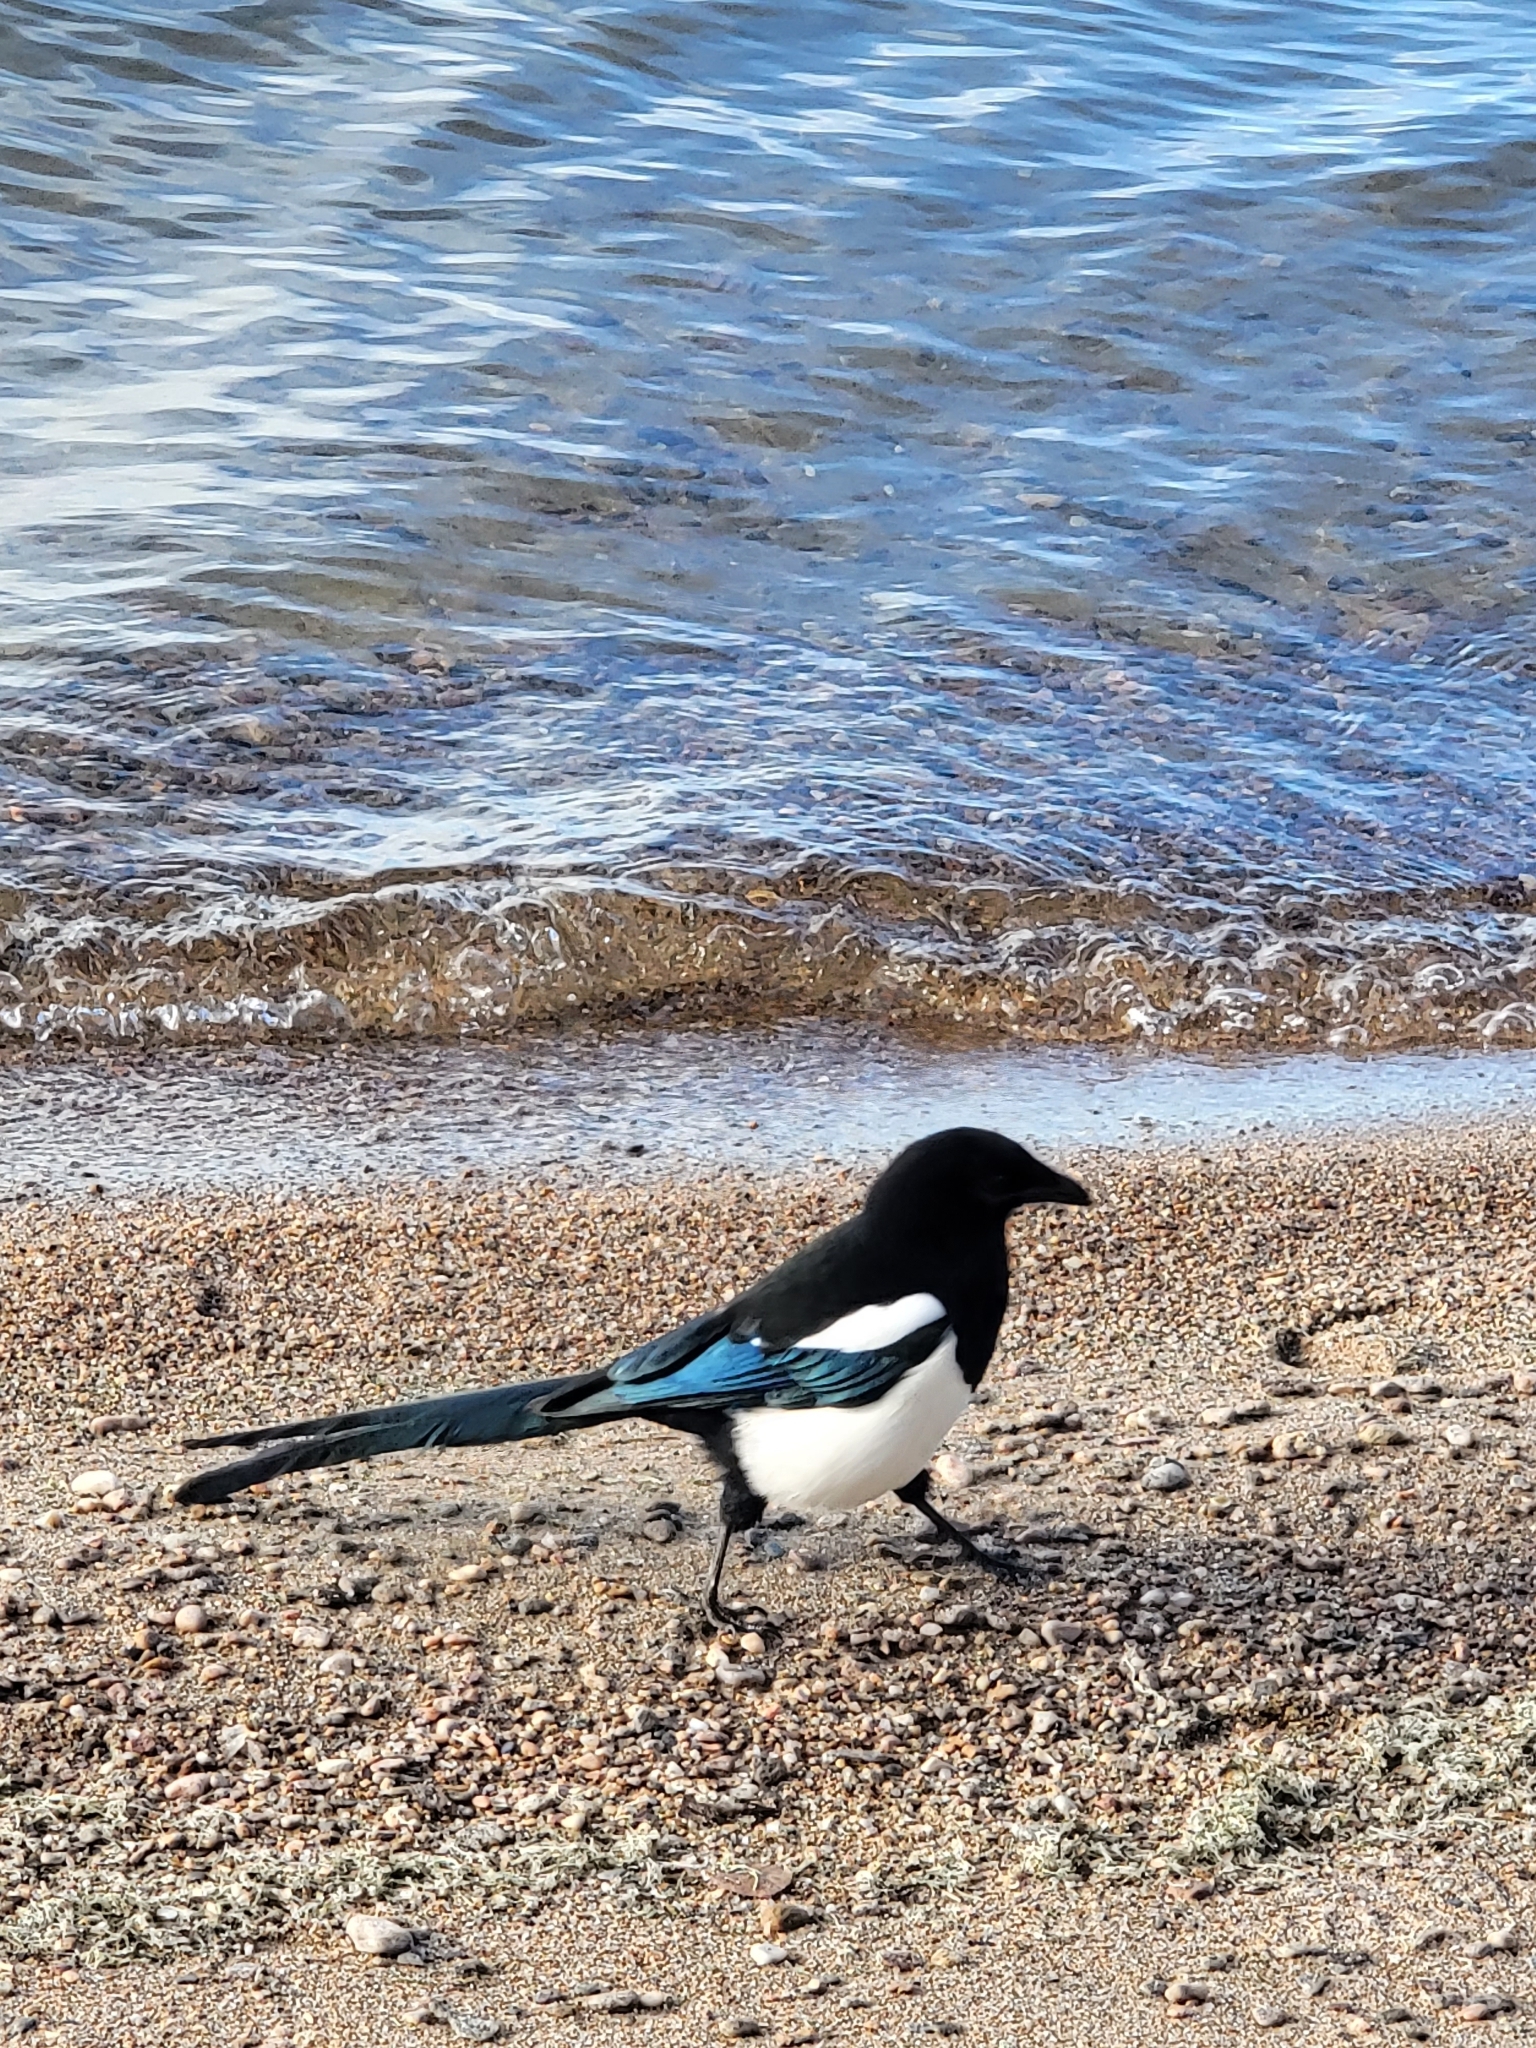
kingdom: Animalia
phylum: Chordata
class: Aves
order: Passeriformes
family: Corvidae
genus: Pica
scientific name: Pica hudsonia
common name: Black-billed magpie
